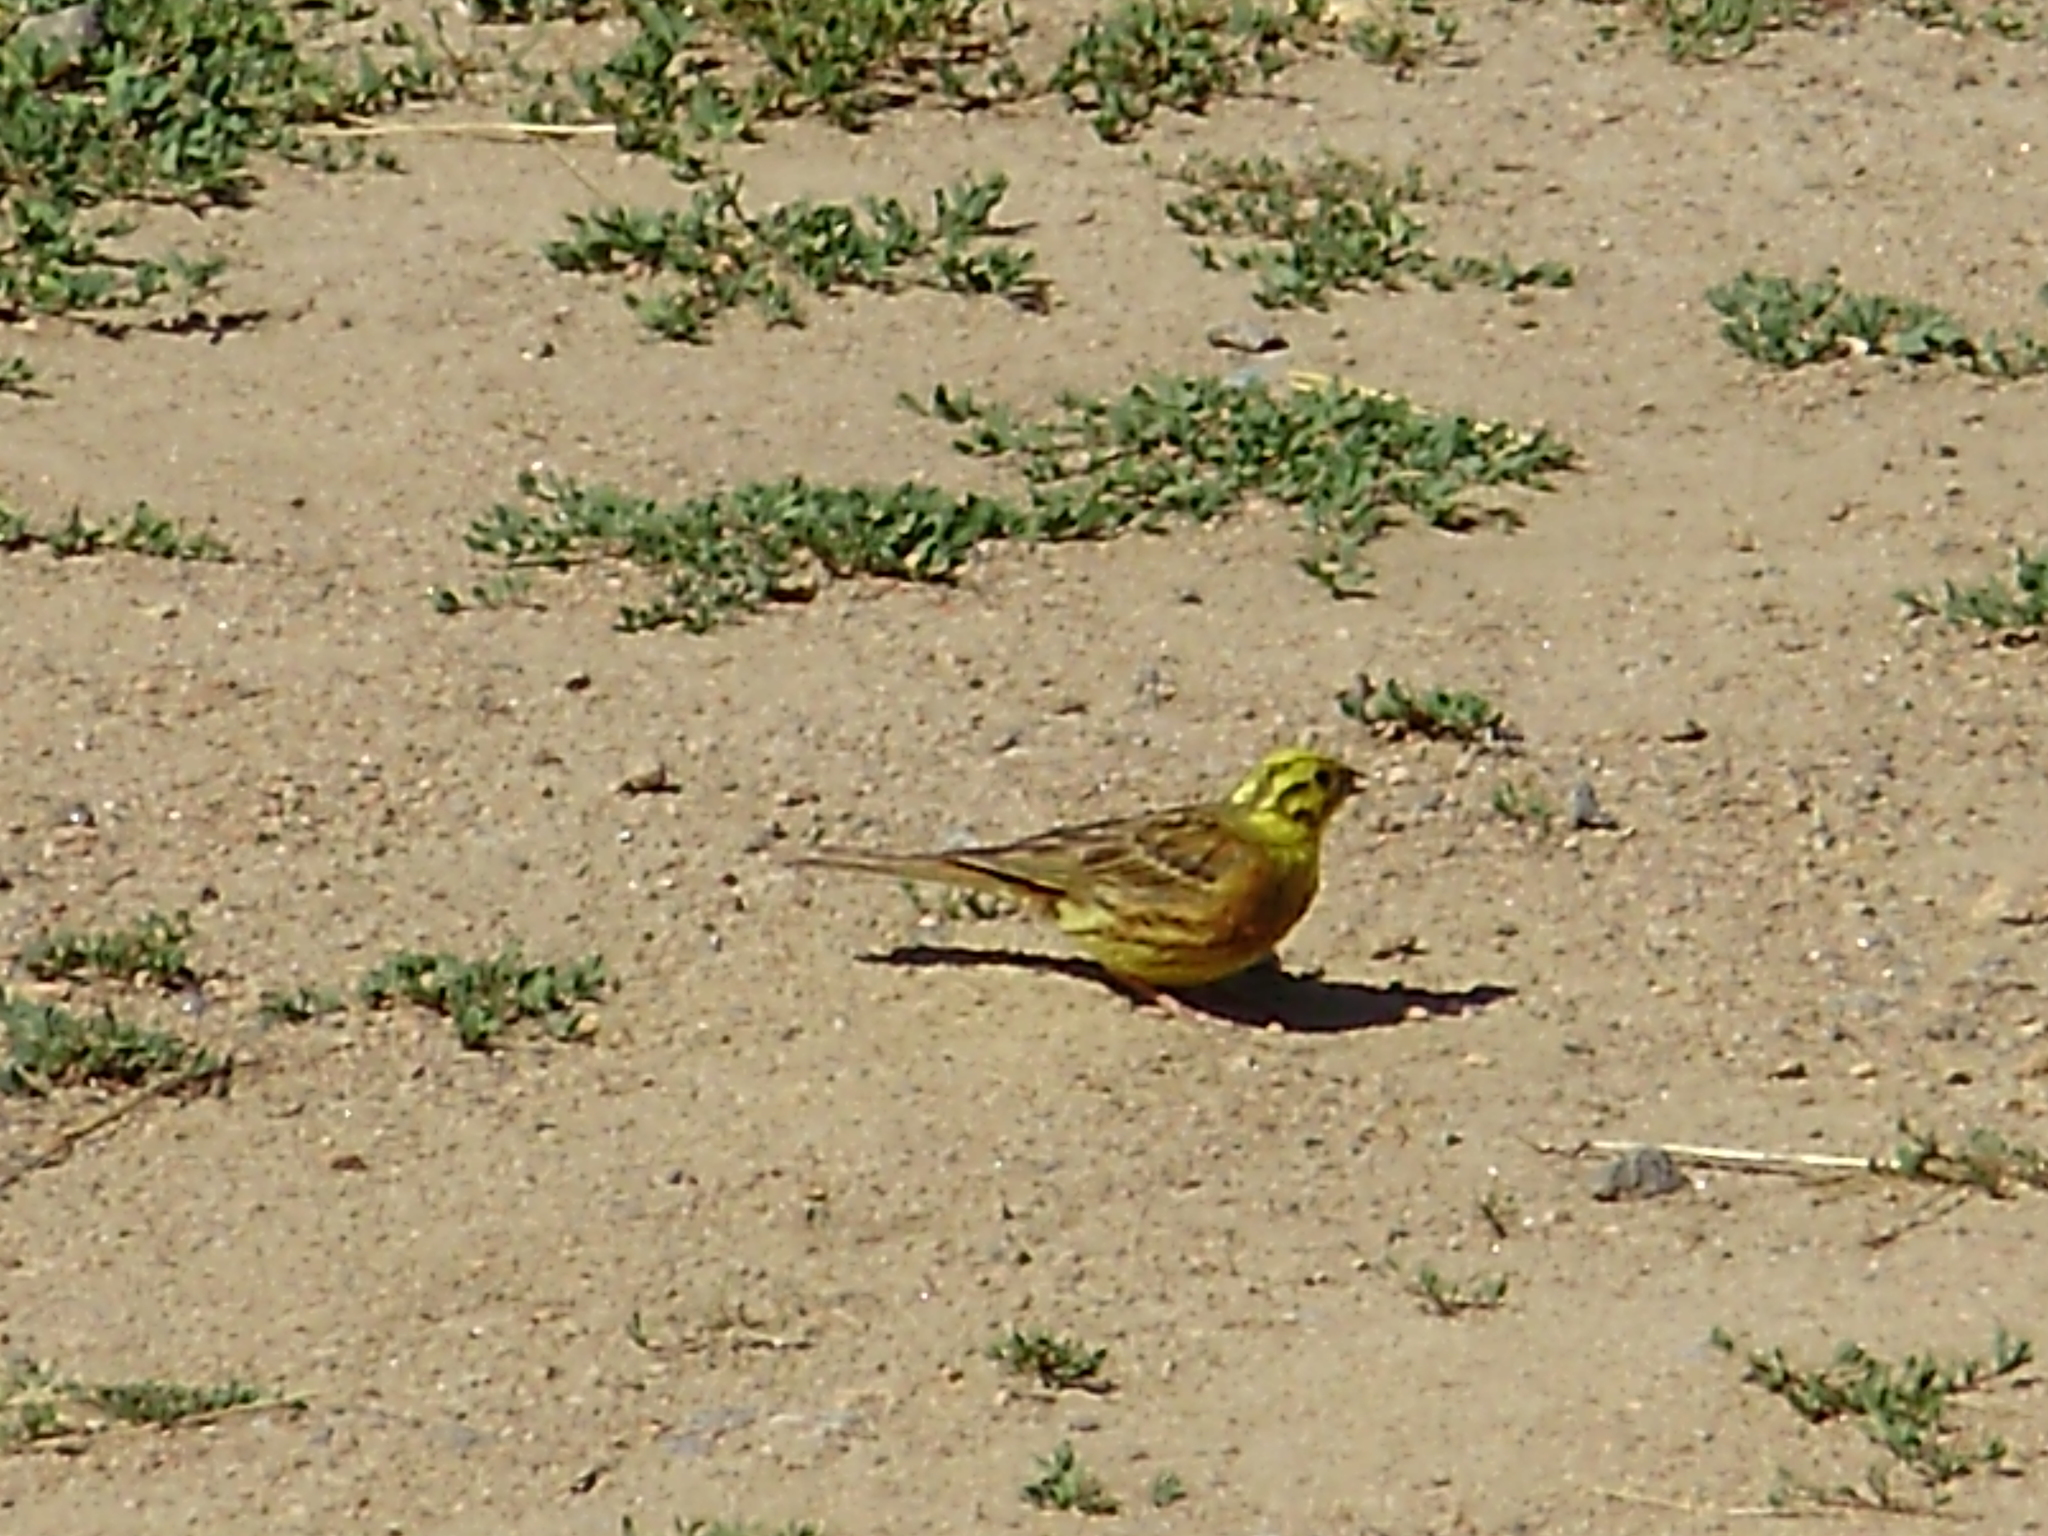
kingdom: Animalia
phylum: Chordata
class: Aves
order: Passeriformes
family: Emberizidae
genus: Emberiza
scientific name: Emberiza citrinella
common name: Yellowhammer
